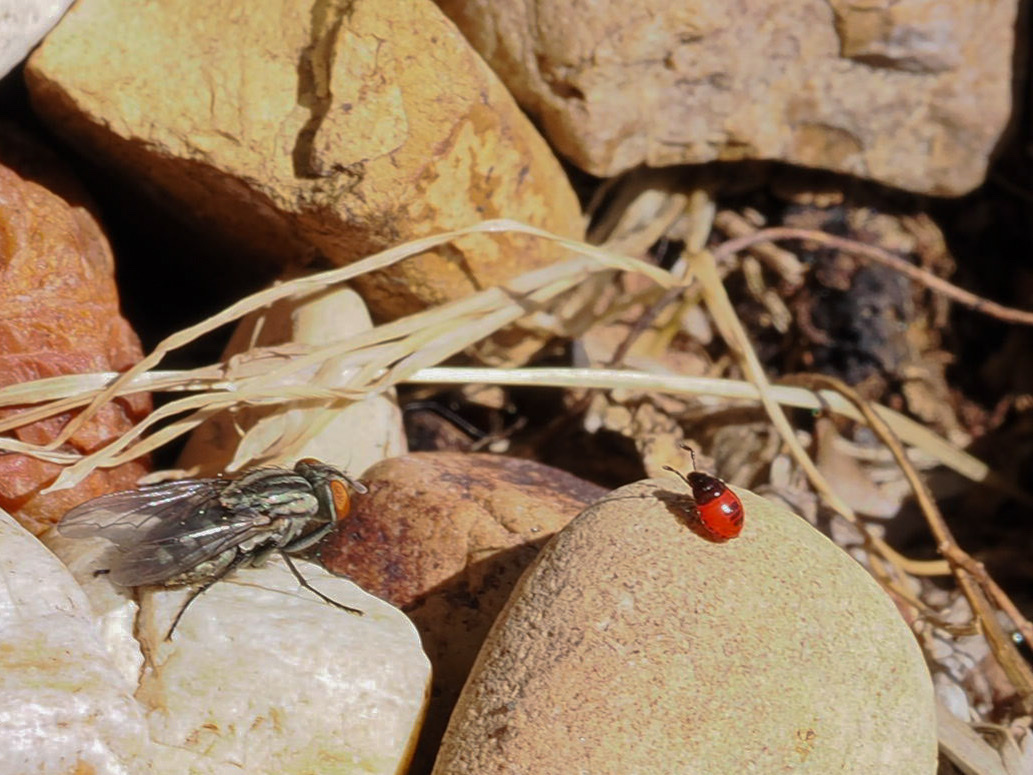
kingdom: Animalia
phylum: Arthropoda
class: Insecta
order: Hemiptera
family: Cydnidae
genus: Sehirus
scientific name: Sehirus cinctus
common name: White-margined burrower bug
